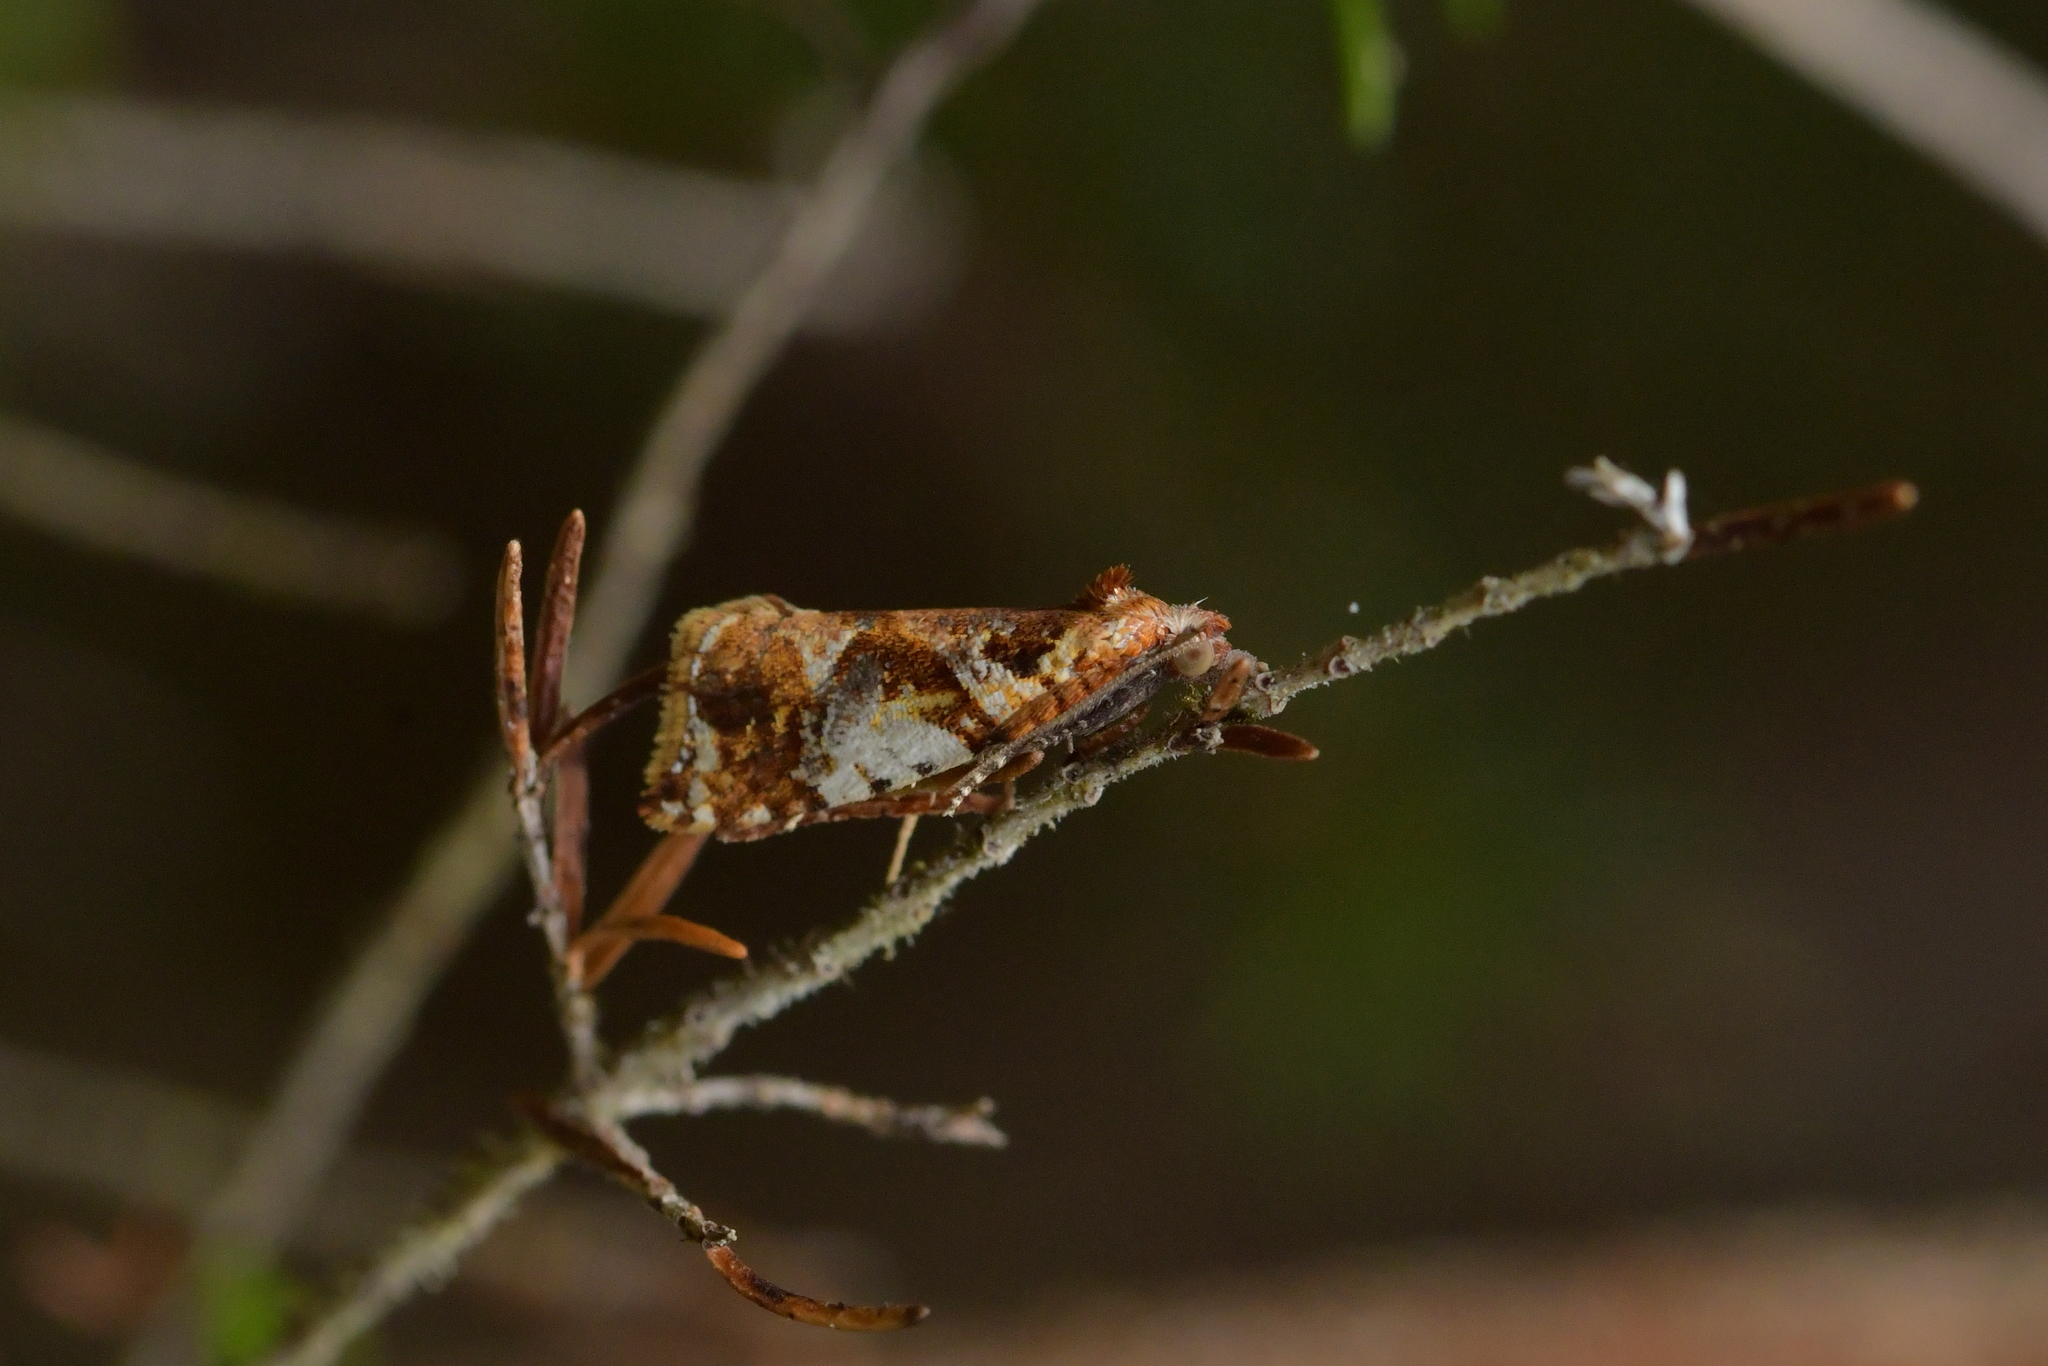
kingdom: Animalia
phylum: Arthropoda
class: Insecta
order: Lepidoptera
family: Tortricidae
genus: Pyrgotis
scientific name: Pyrgotis plagiatana
